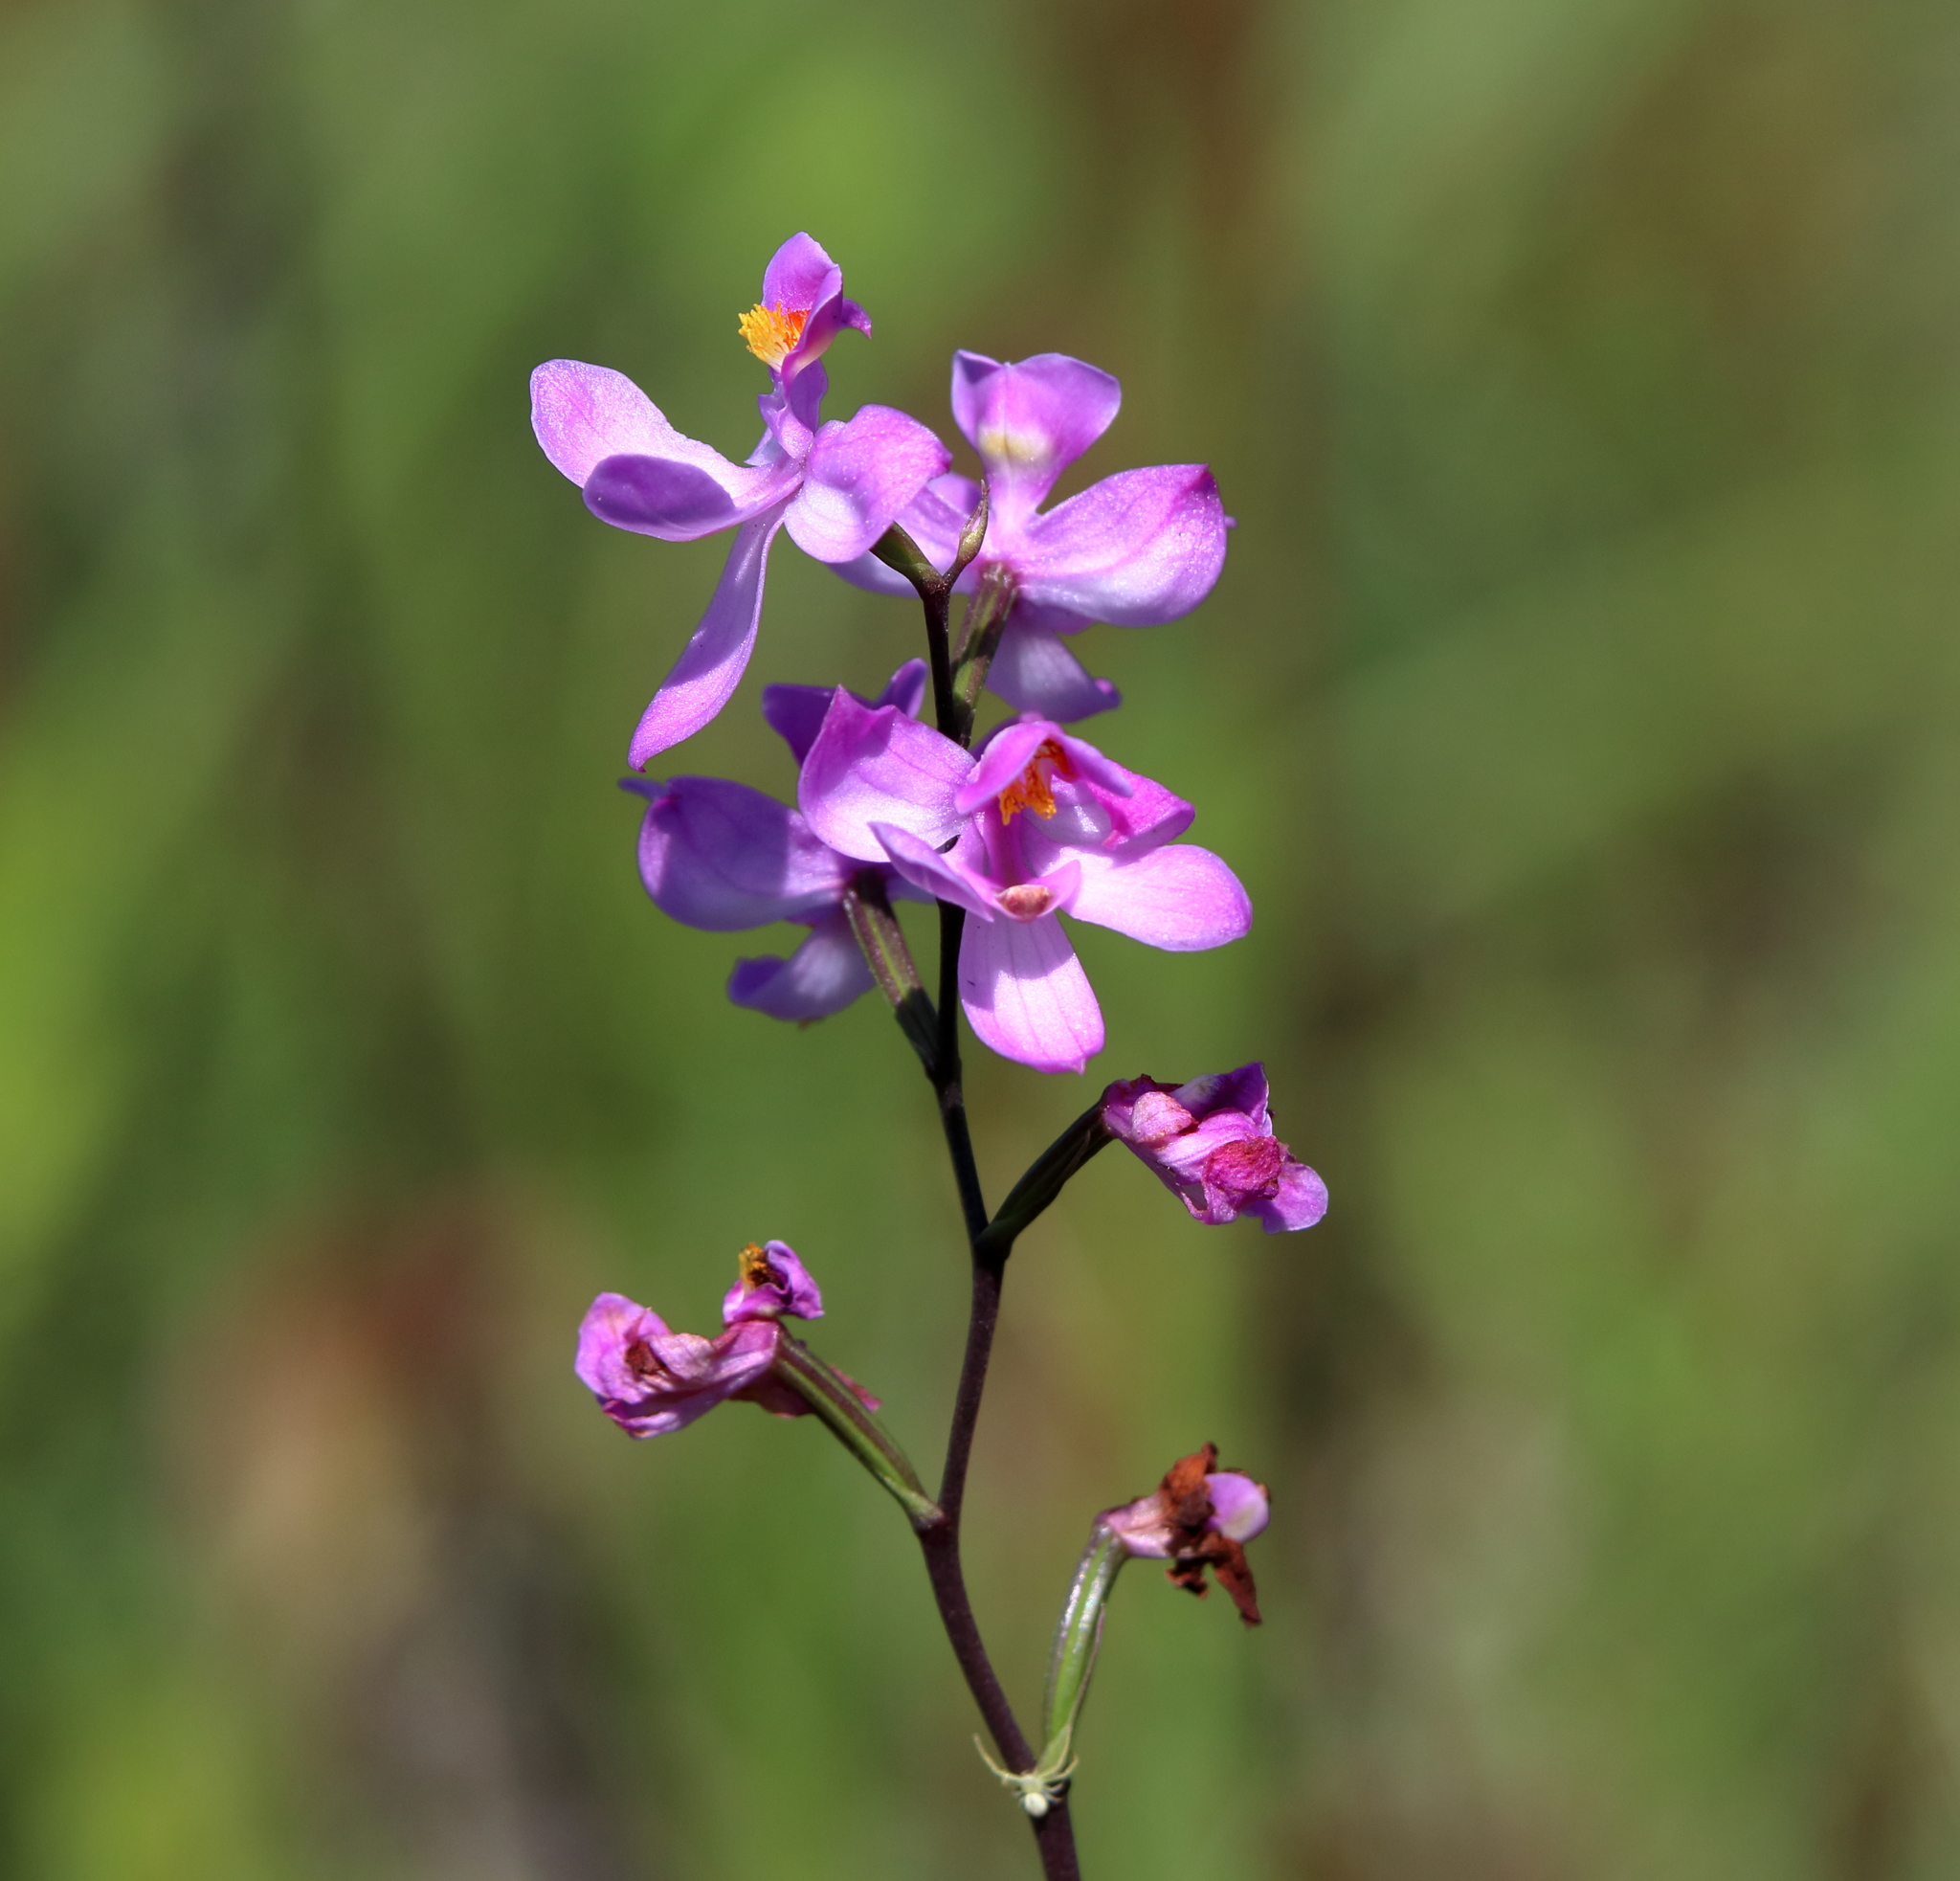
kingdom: Plantae
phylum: Tracheophyta
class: Liliopsida
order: Asparagales
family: Orchidaceae
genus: Calopogon
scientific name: Calopogon multiflorus
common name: Many-flowered grass-pink orchid
